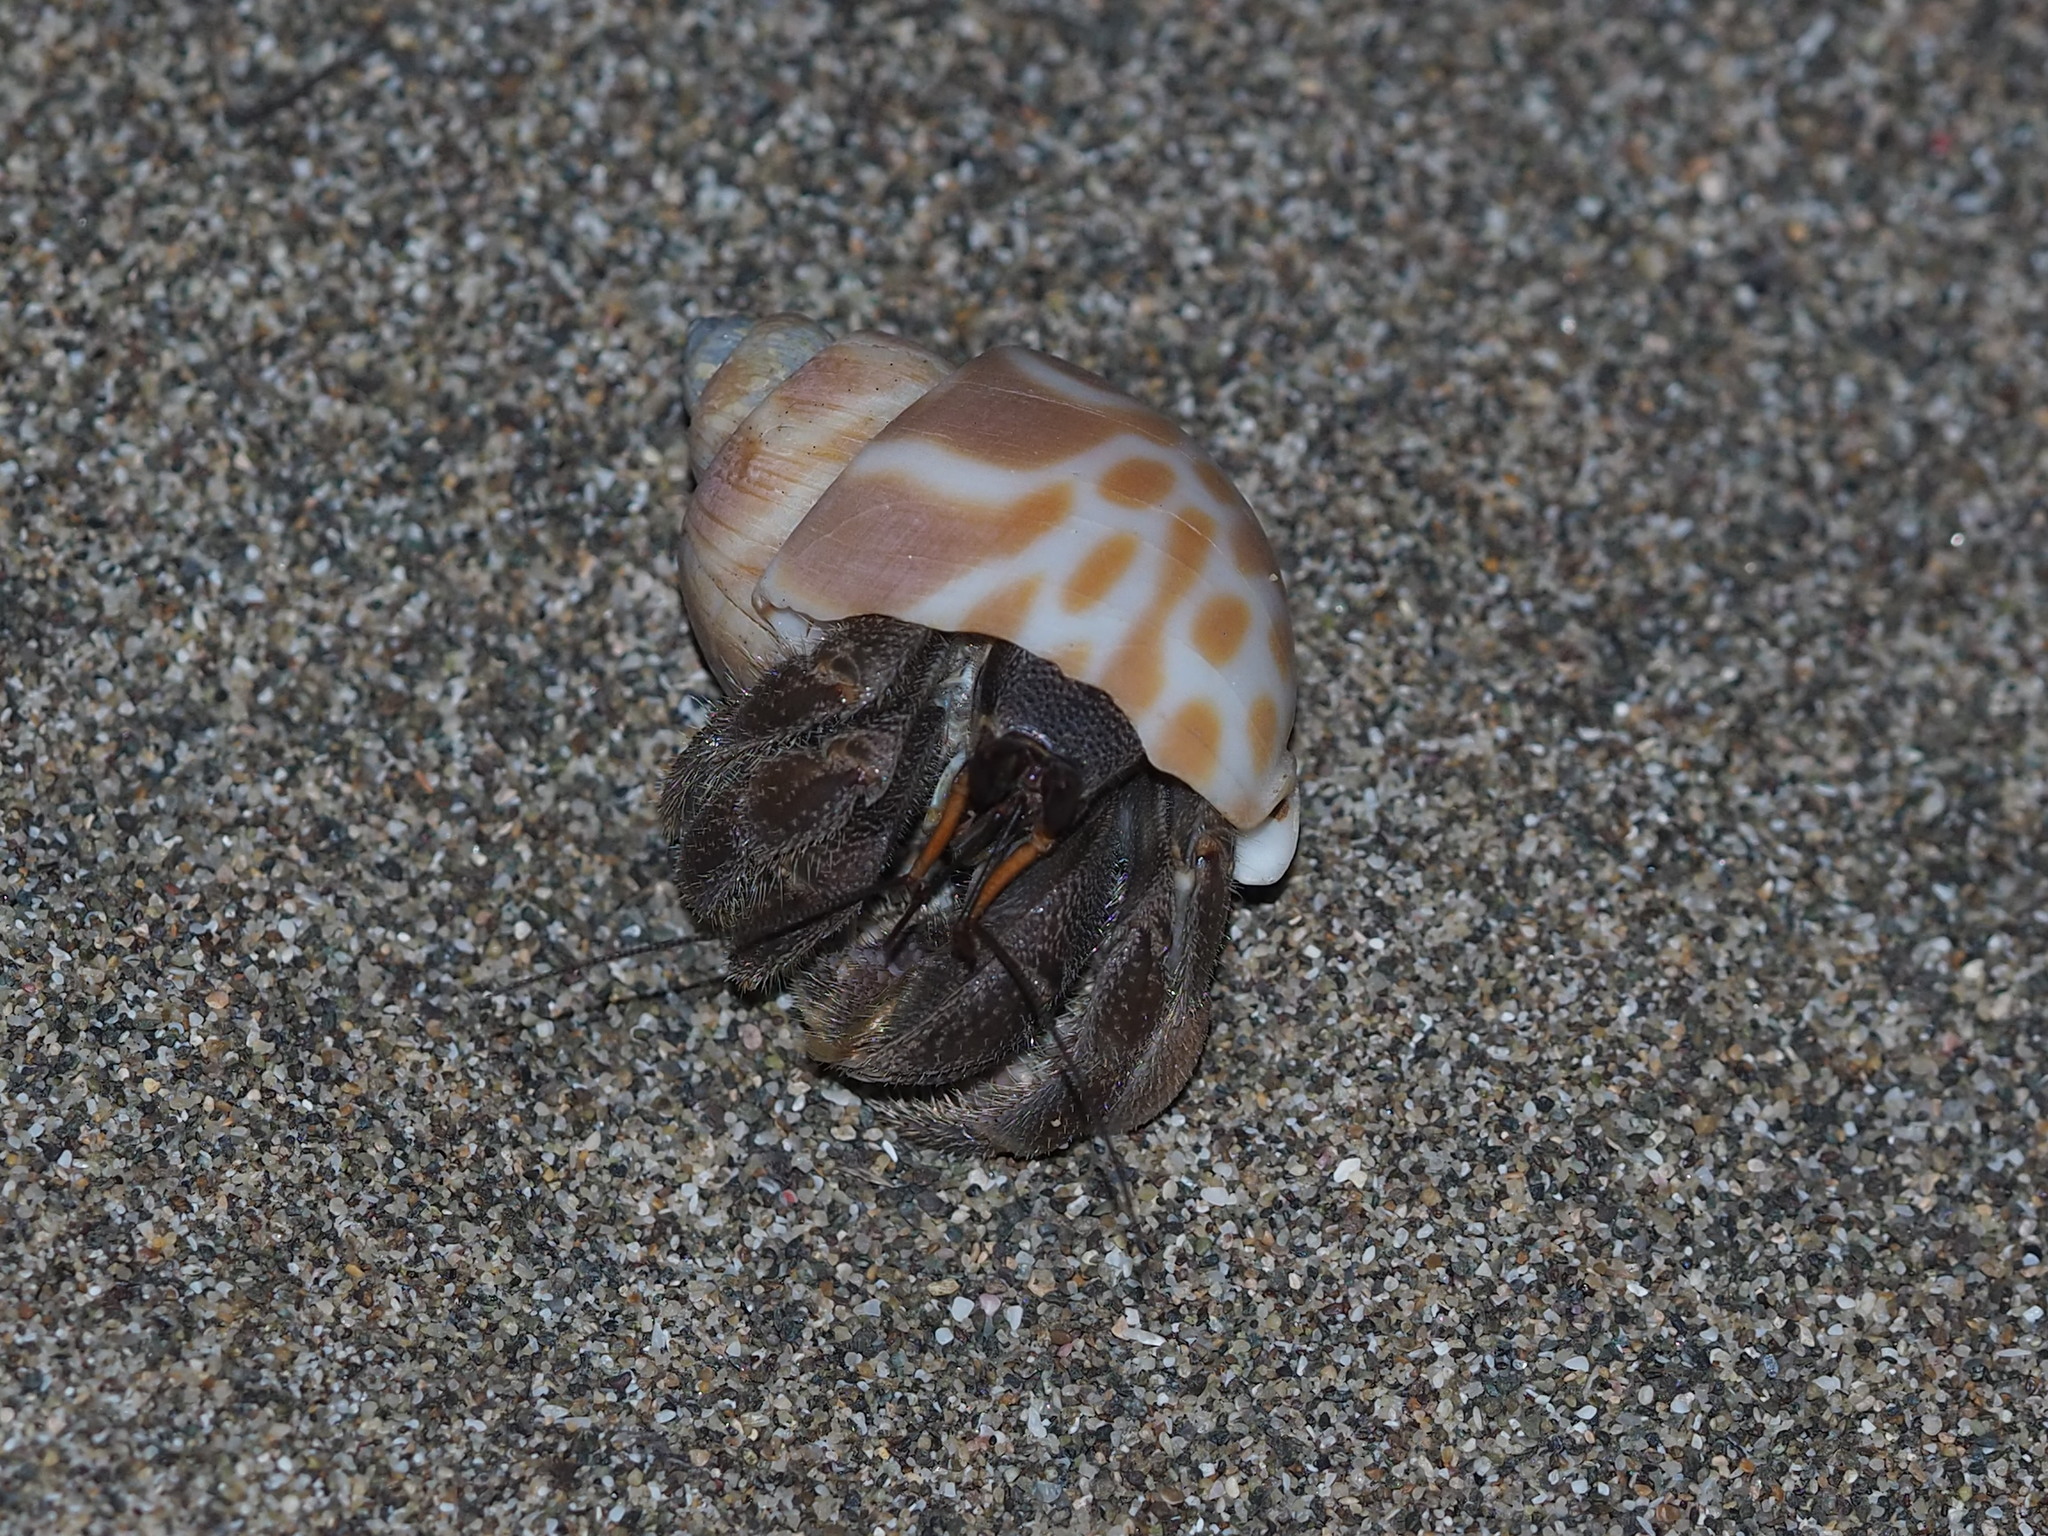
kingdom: Animalia
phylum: Arthropoda
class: Malacostraca
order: Decapoda
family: Coenobitidae
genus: Coenobita
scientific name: Coenobita rugosus
